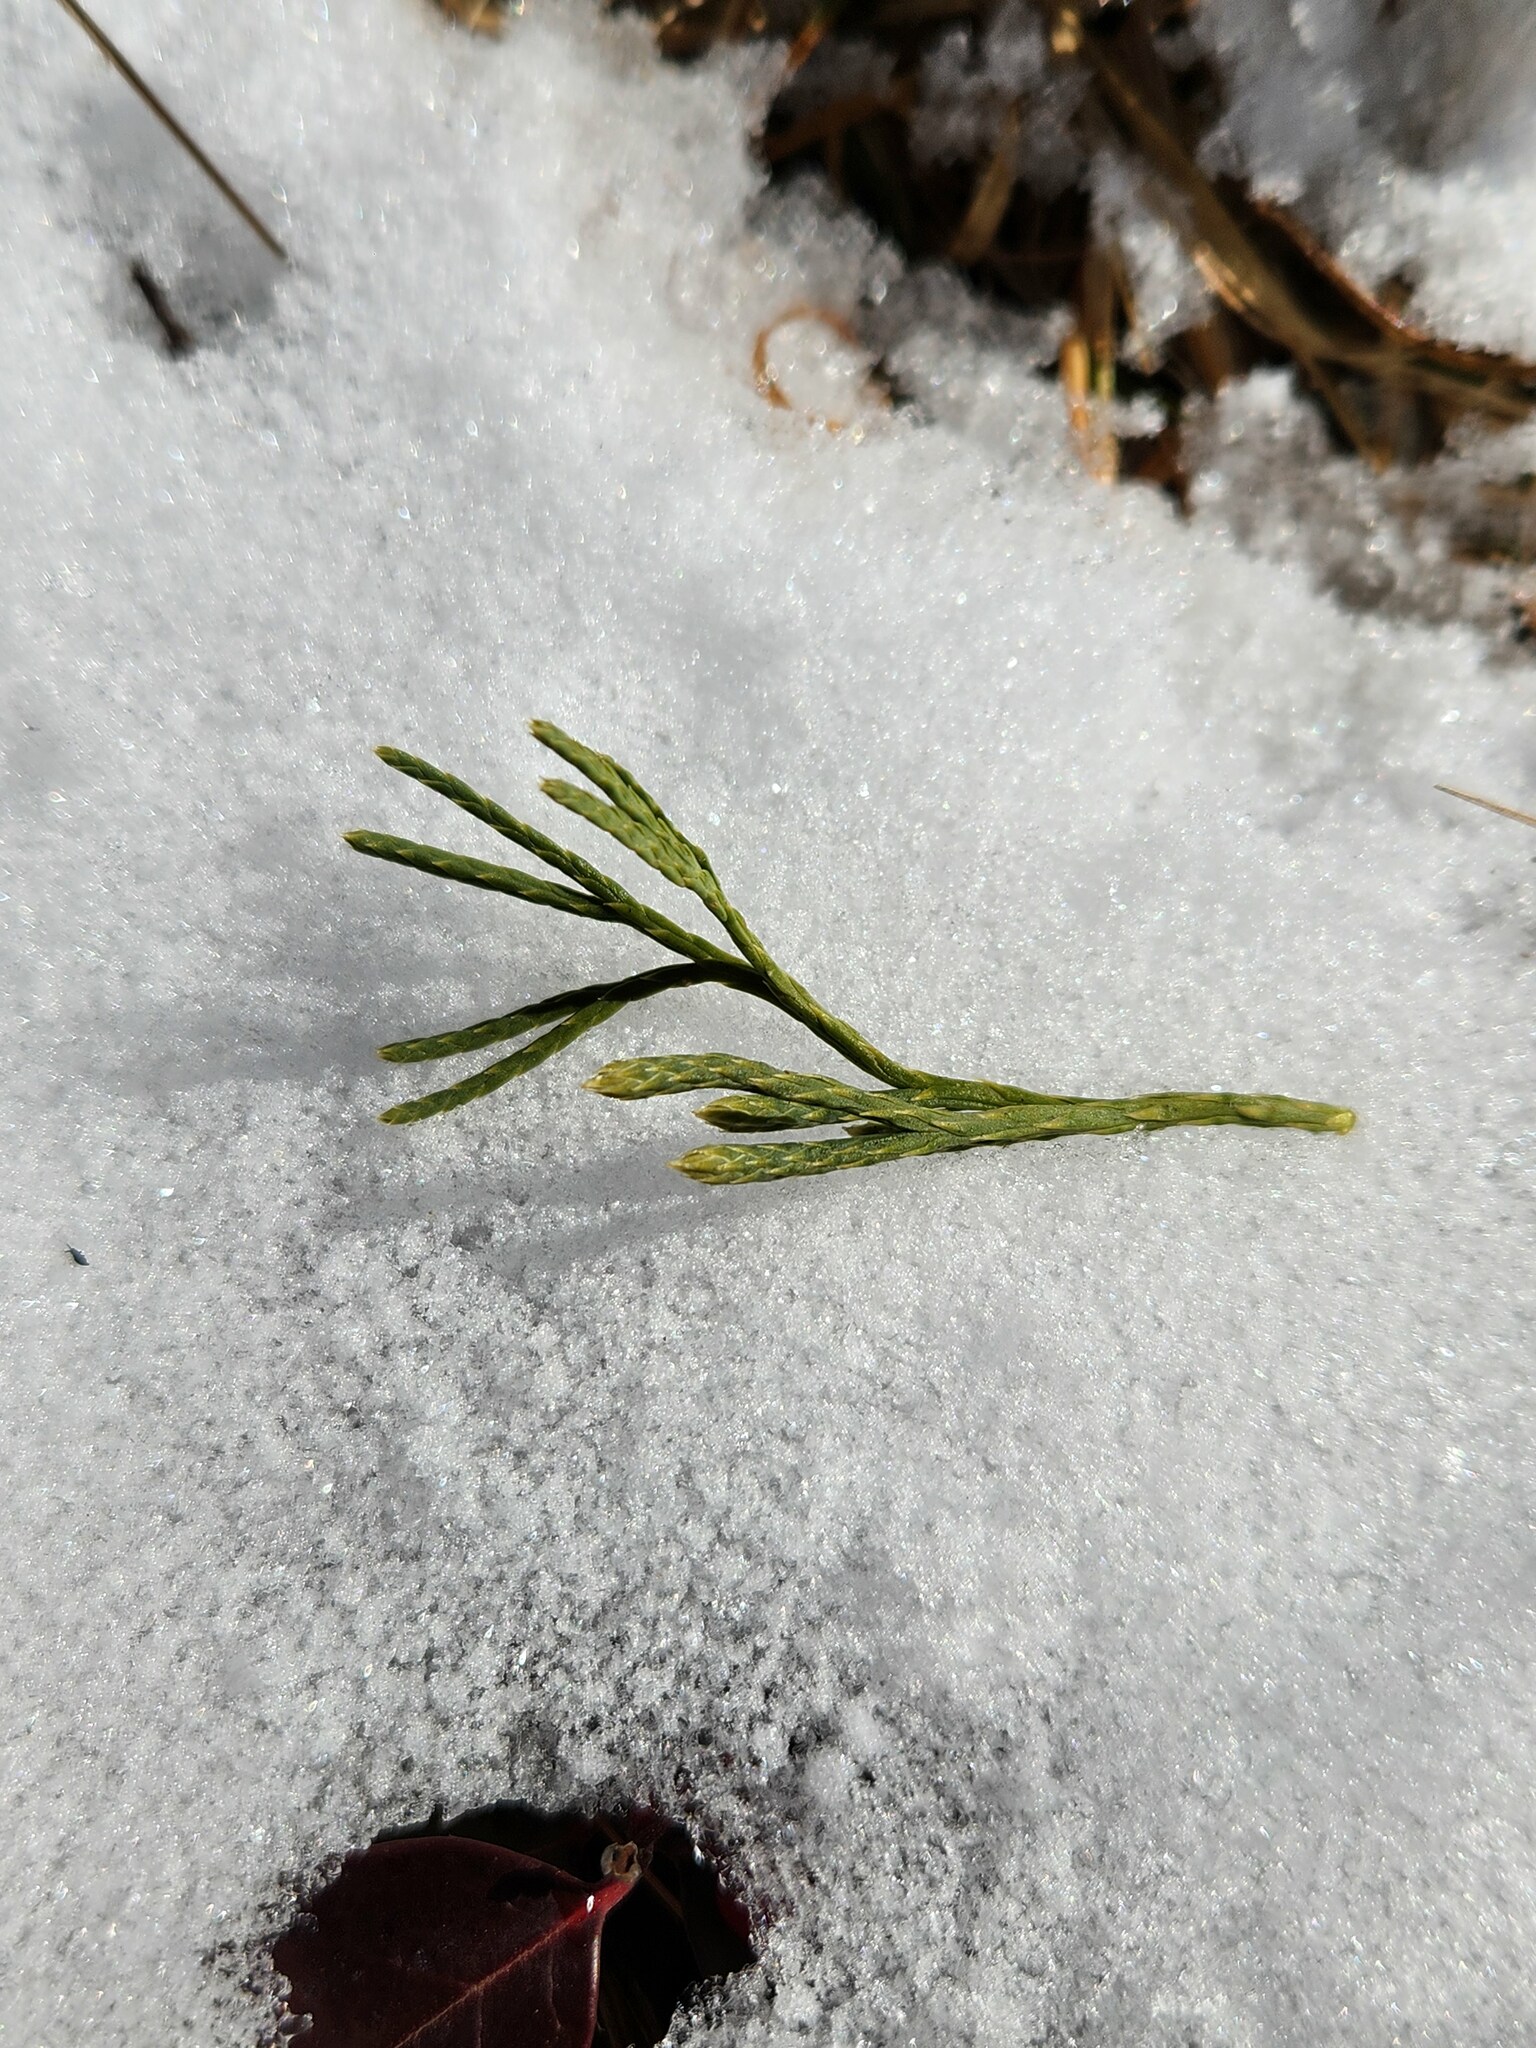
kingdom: Plantae
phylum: Tracheophyta
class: Lycopodiopsida
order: Lycopodiales
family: Lycopodiaceae
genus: Diphasiastrum
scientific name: Diphasiastrum tristachyum
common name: Blue ground-cedar
